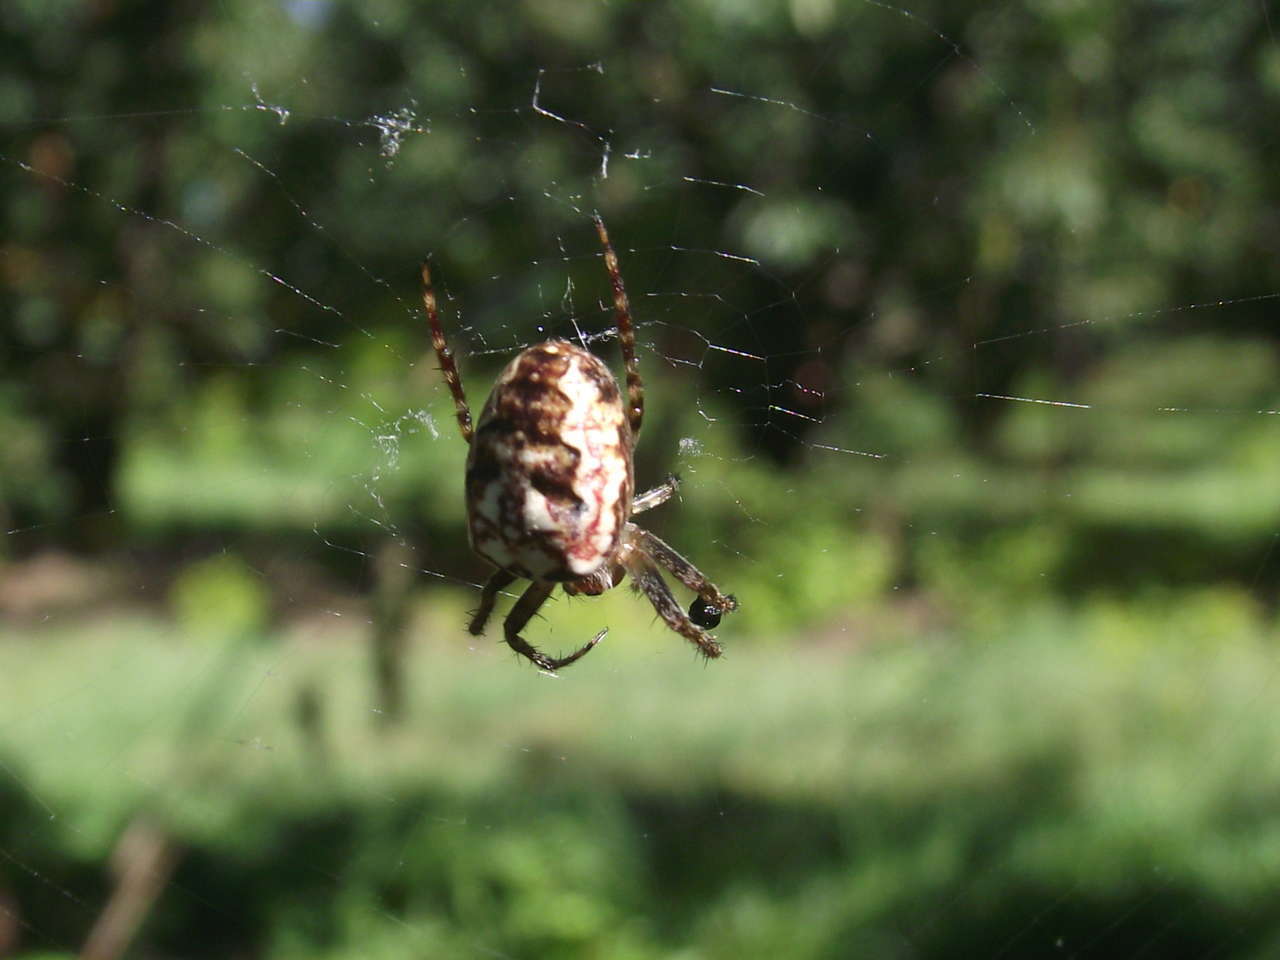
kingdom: Animalia
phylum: Arthropoda
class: Arachnida
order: Araneae
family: Araneidae
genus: Plebs
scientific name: Plebs eburnus
